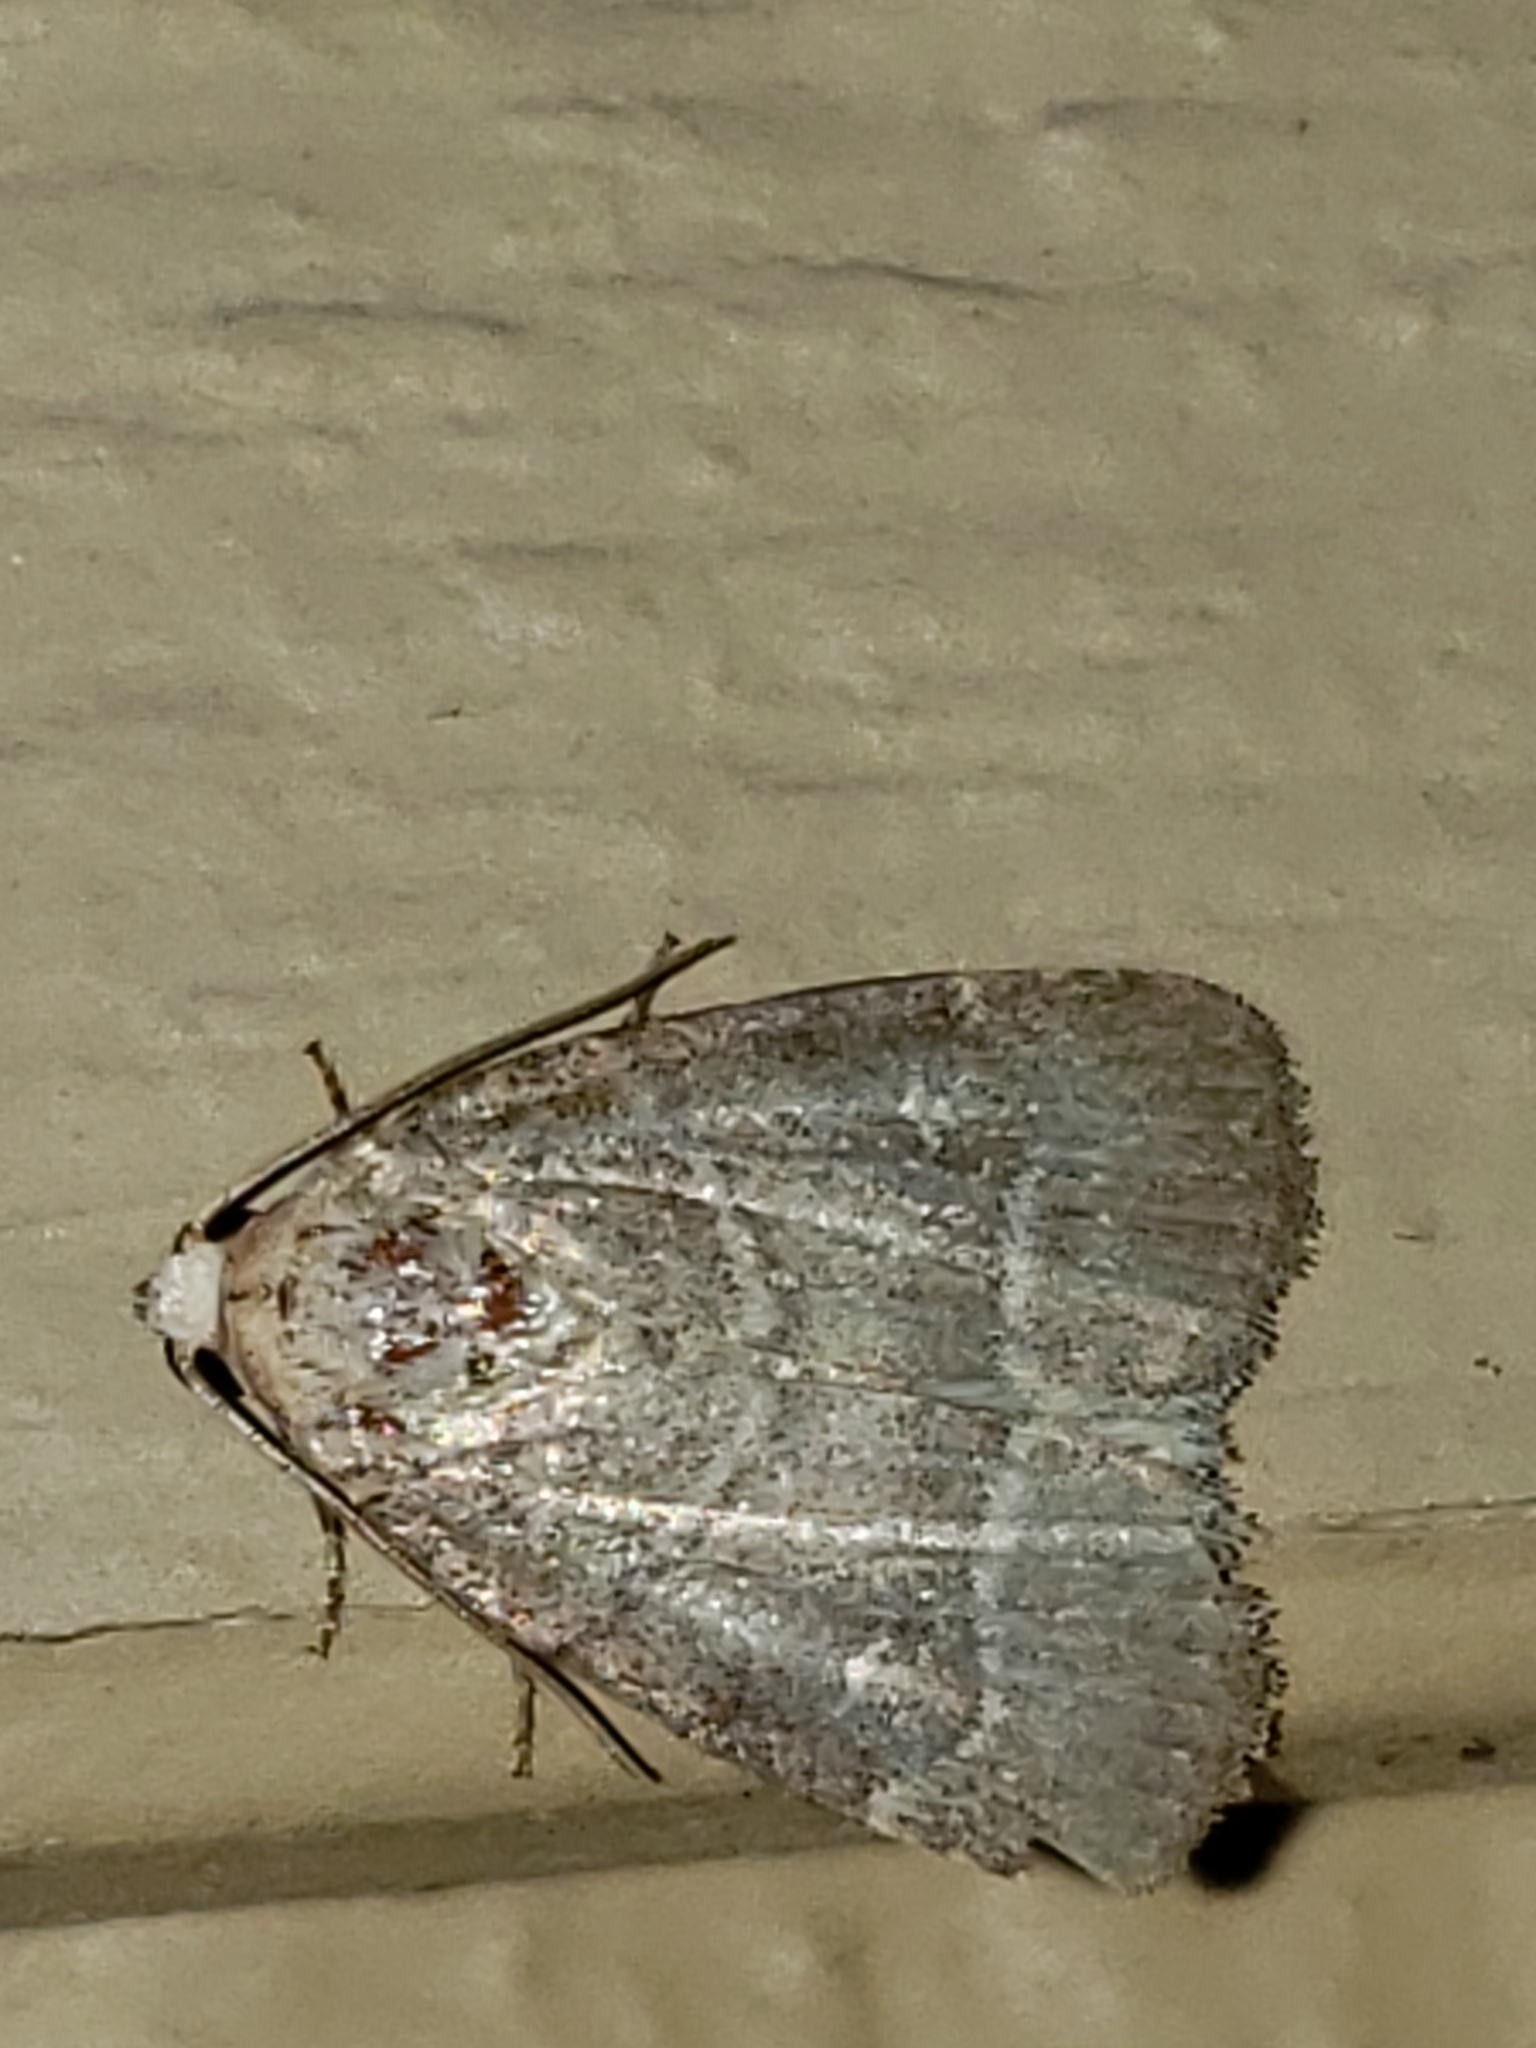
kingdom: Animalia
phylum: Arthropoda
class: Insecta
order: Lepidoptera
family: Noctuidae
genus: Elaphria
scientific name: Elaphria grata
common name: Grateful midget moth
